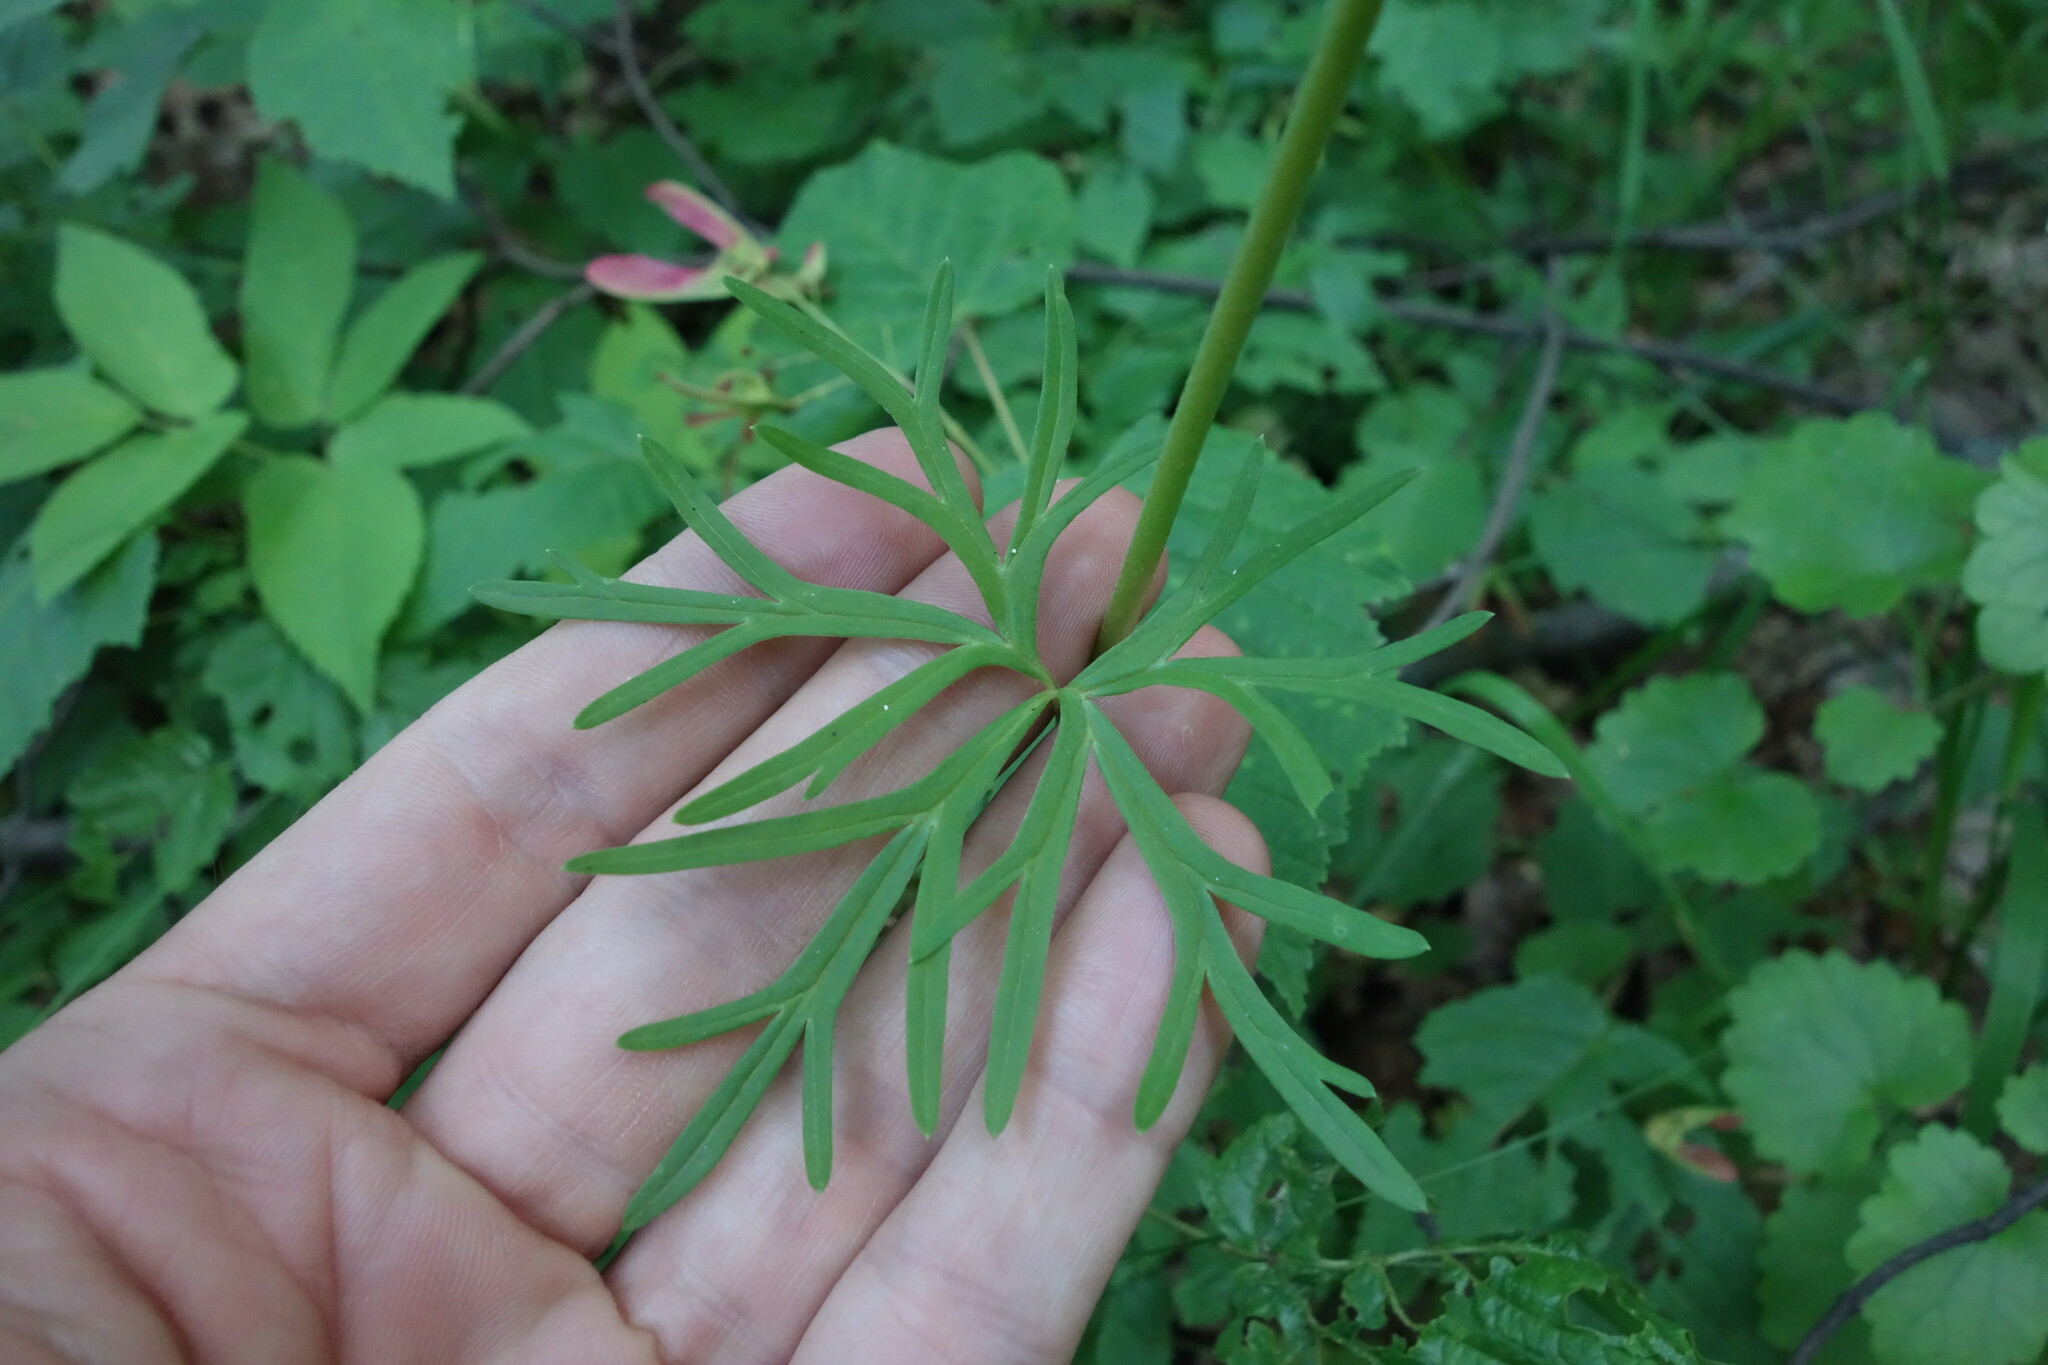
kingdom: Plantae
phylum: Tracheophyta
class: Magnoliopsida
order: Ranunculales
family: Ranunculaceae
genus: Aconitum
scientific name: Aconitum anthora
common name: Yellow monkshood
